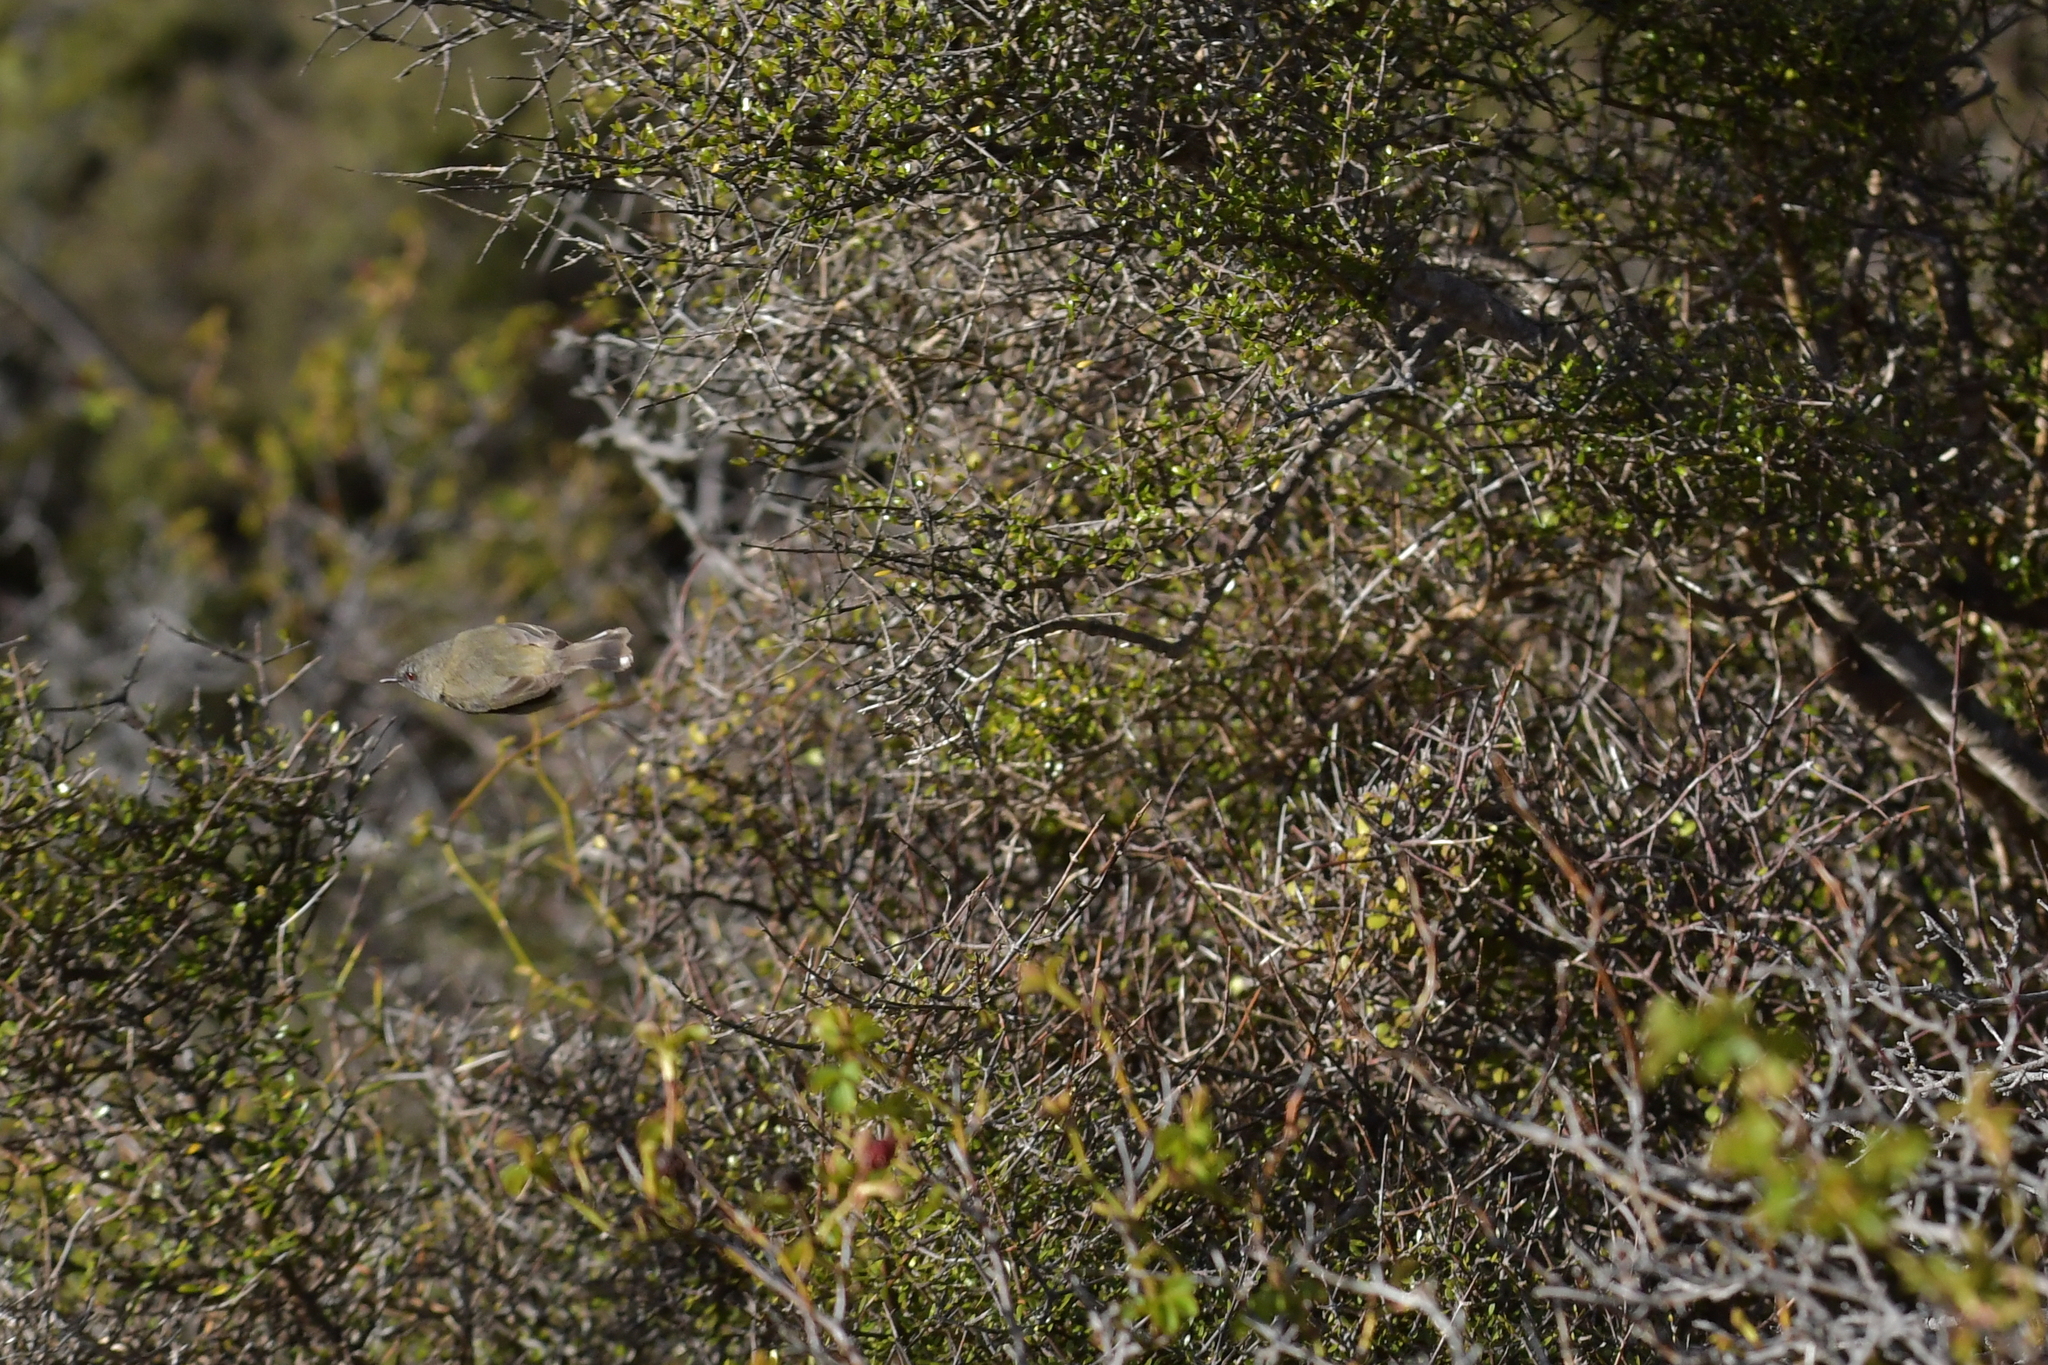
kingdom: Animalia
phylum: Chordata
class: Aves
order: Passeriformes
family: Acanthizidae
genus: Gerygone
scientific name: Gerygone igata
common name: Grey gerygone
